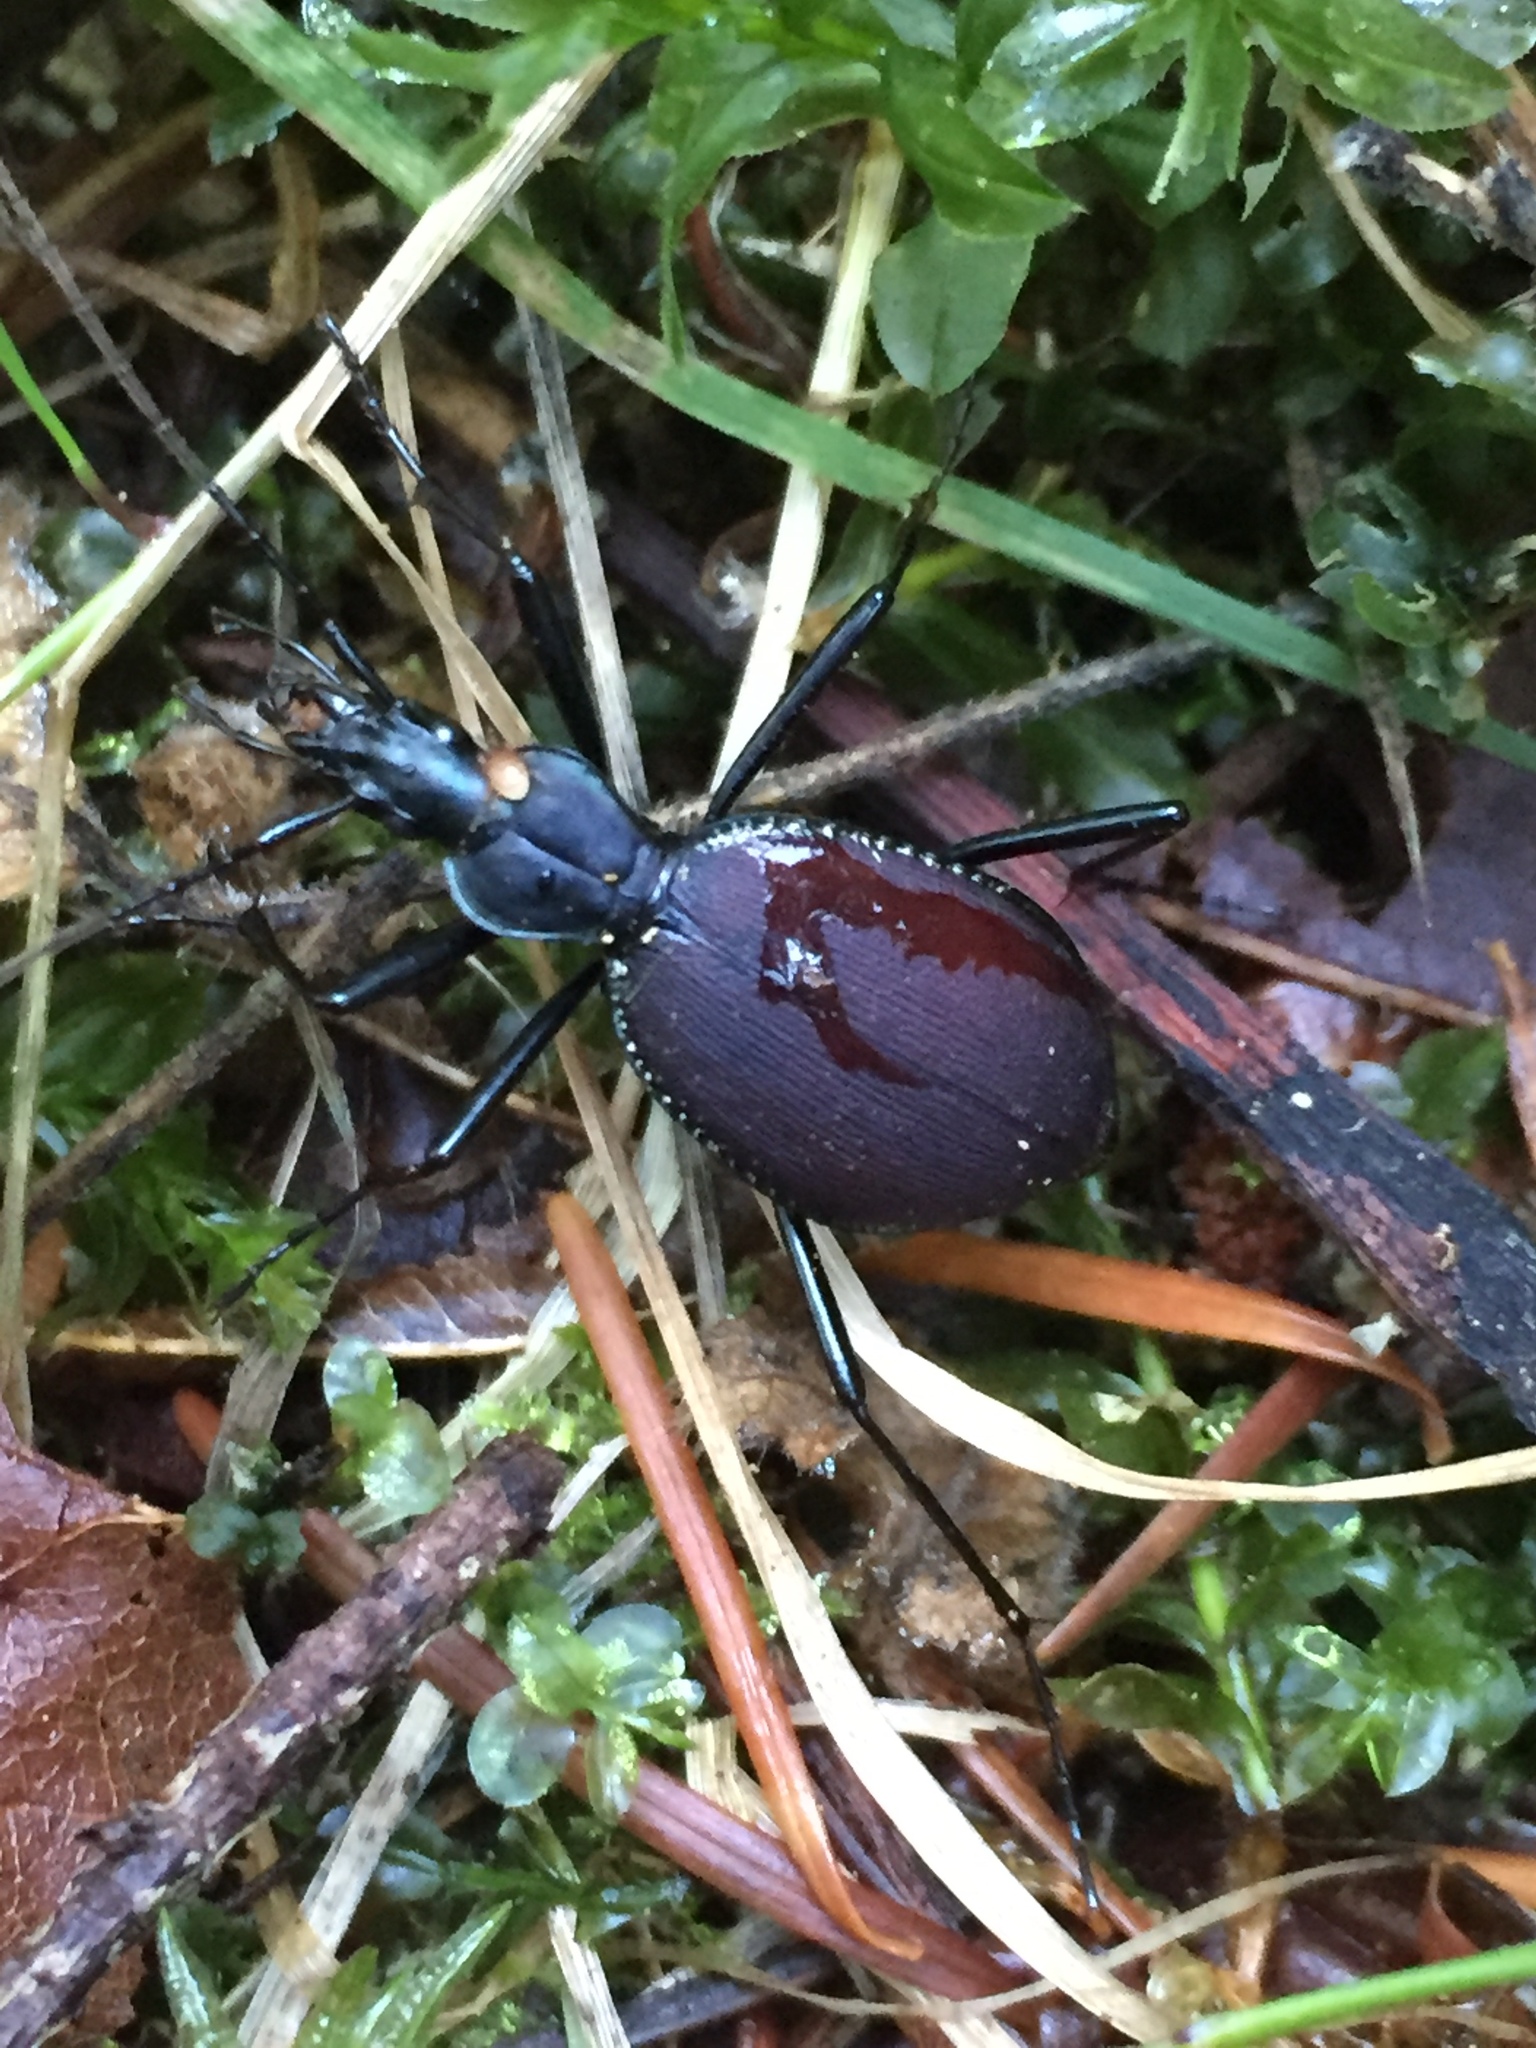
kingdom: Animalia
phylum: Arthropoda
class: Insecta
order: Coleoptera
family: Carabidae
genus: Scaphinotus
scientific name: Scaphinotus angusticollis
